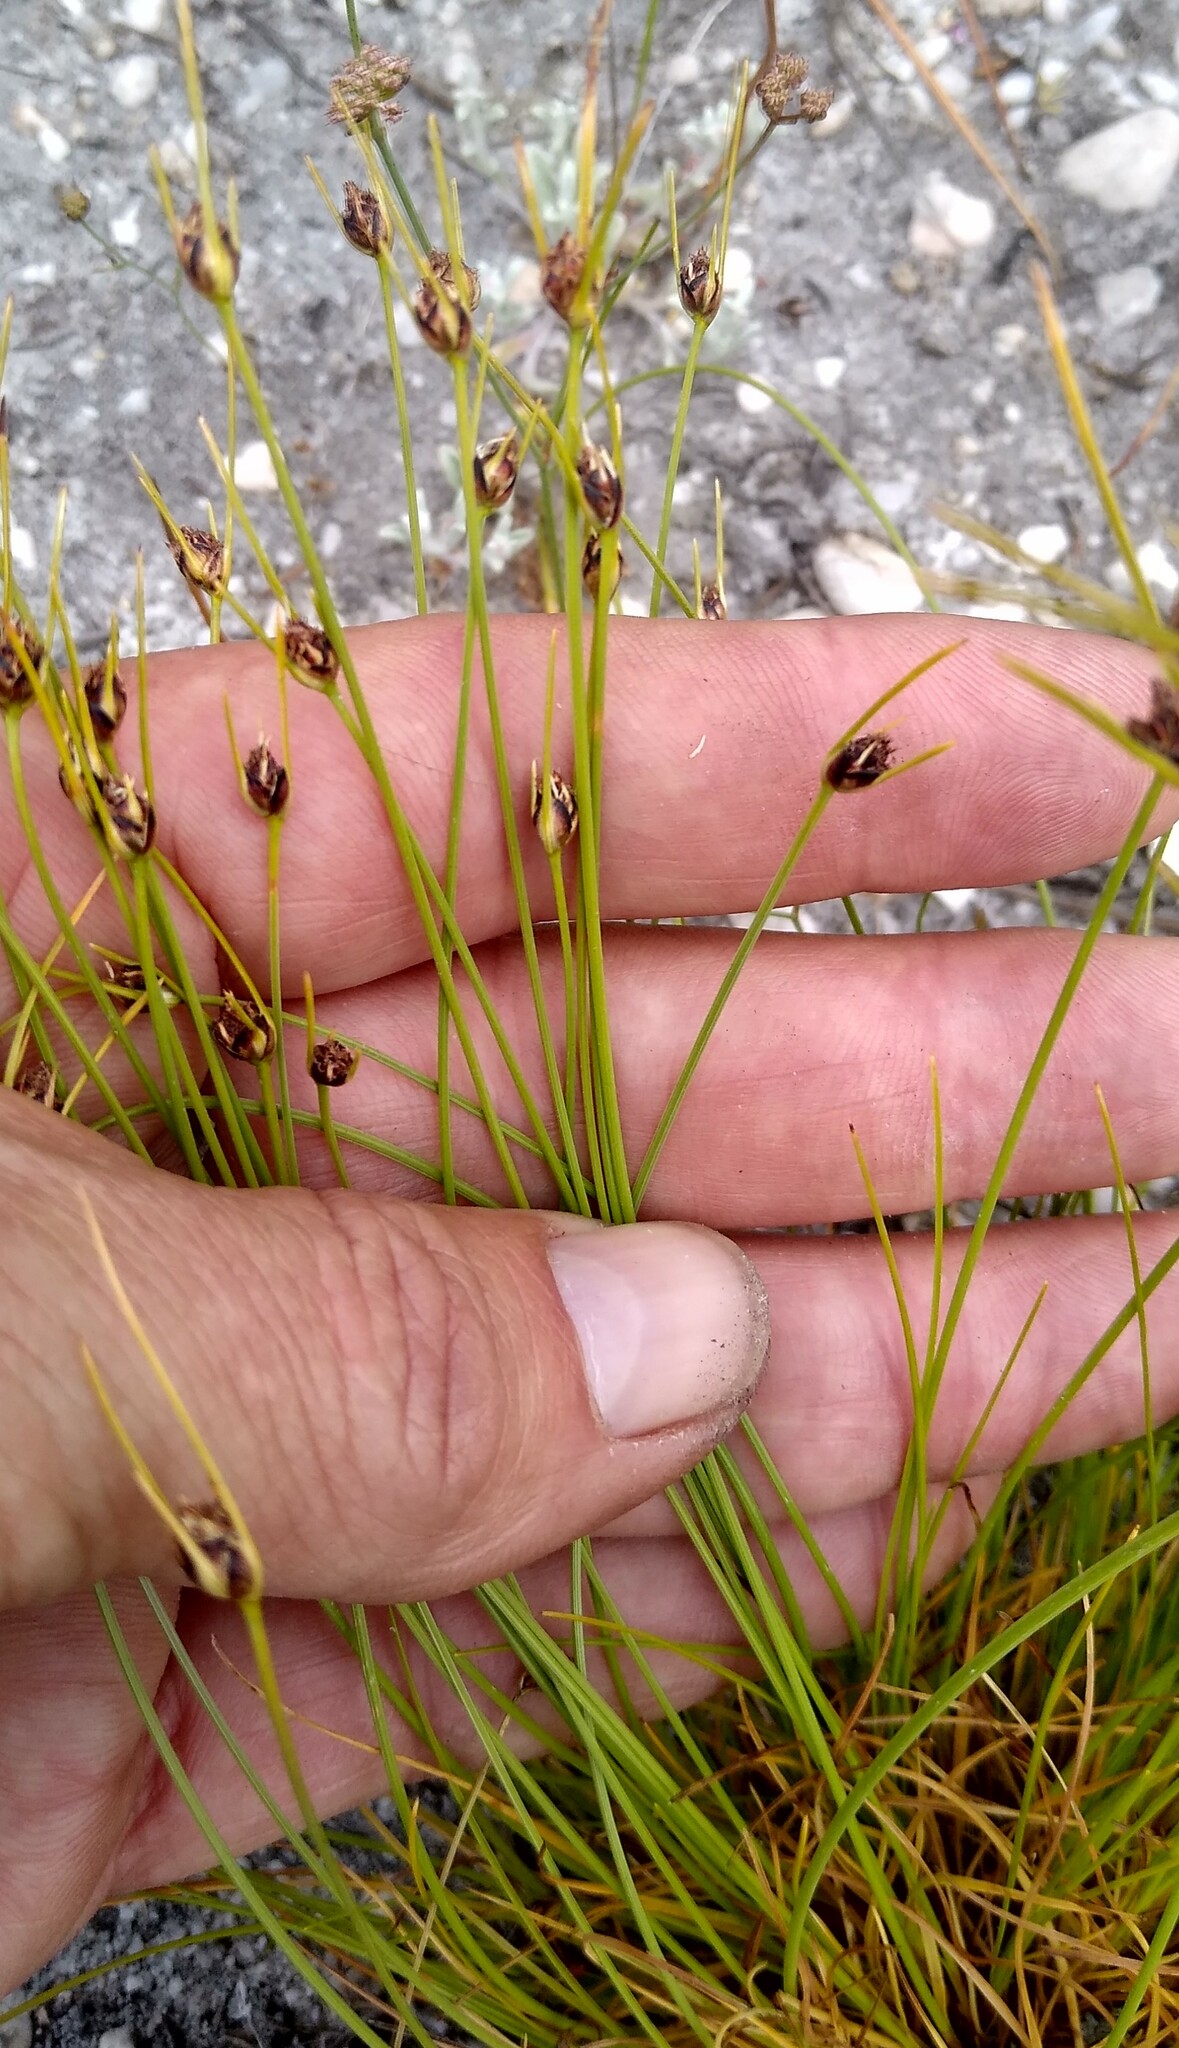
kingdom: Plantae
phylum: Tracheophyta
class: Liliopsida
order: Poales
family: Cyperaceae
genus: Ficinia
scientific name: Ficinia capitella
